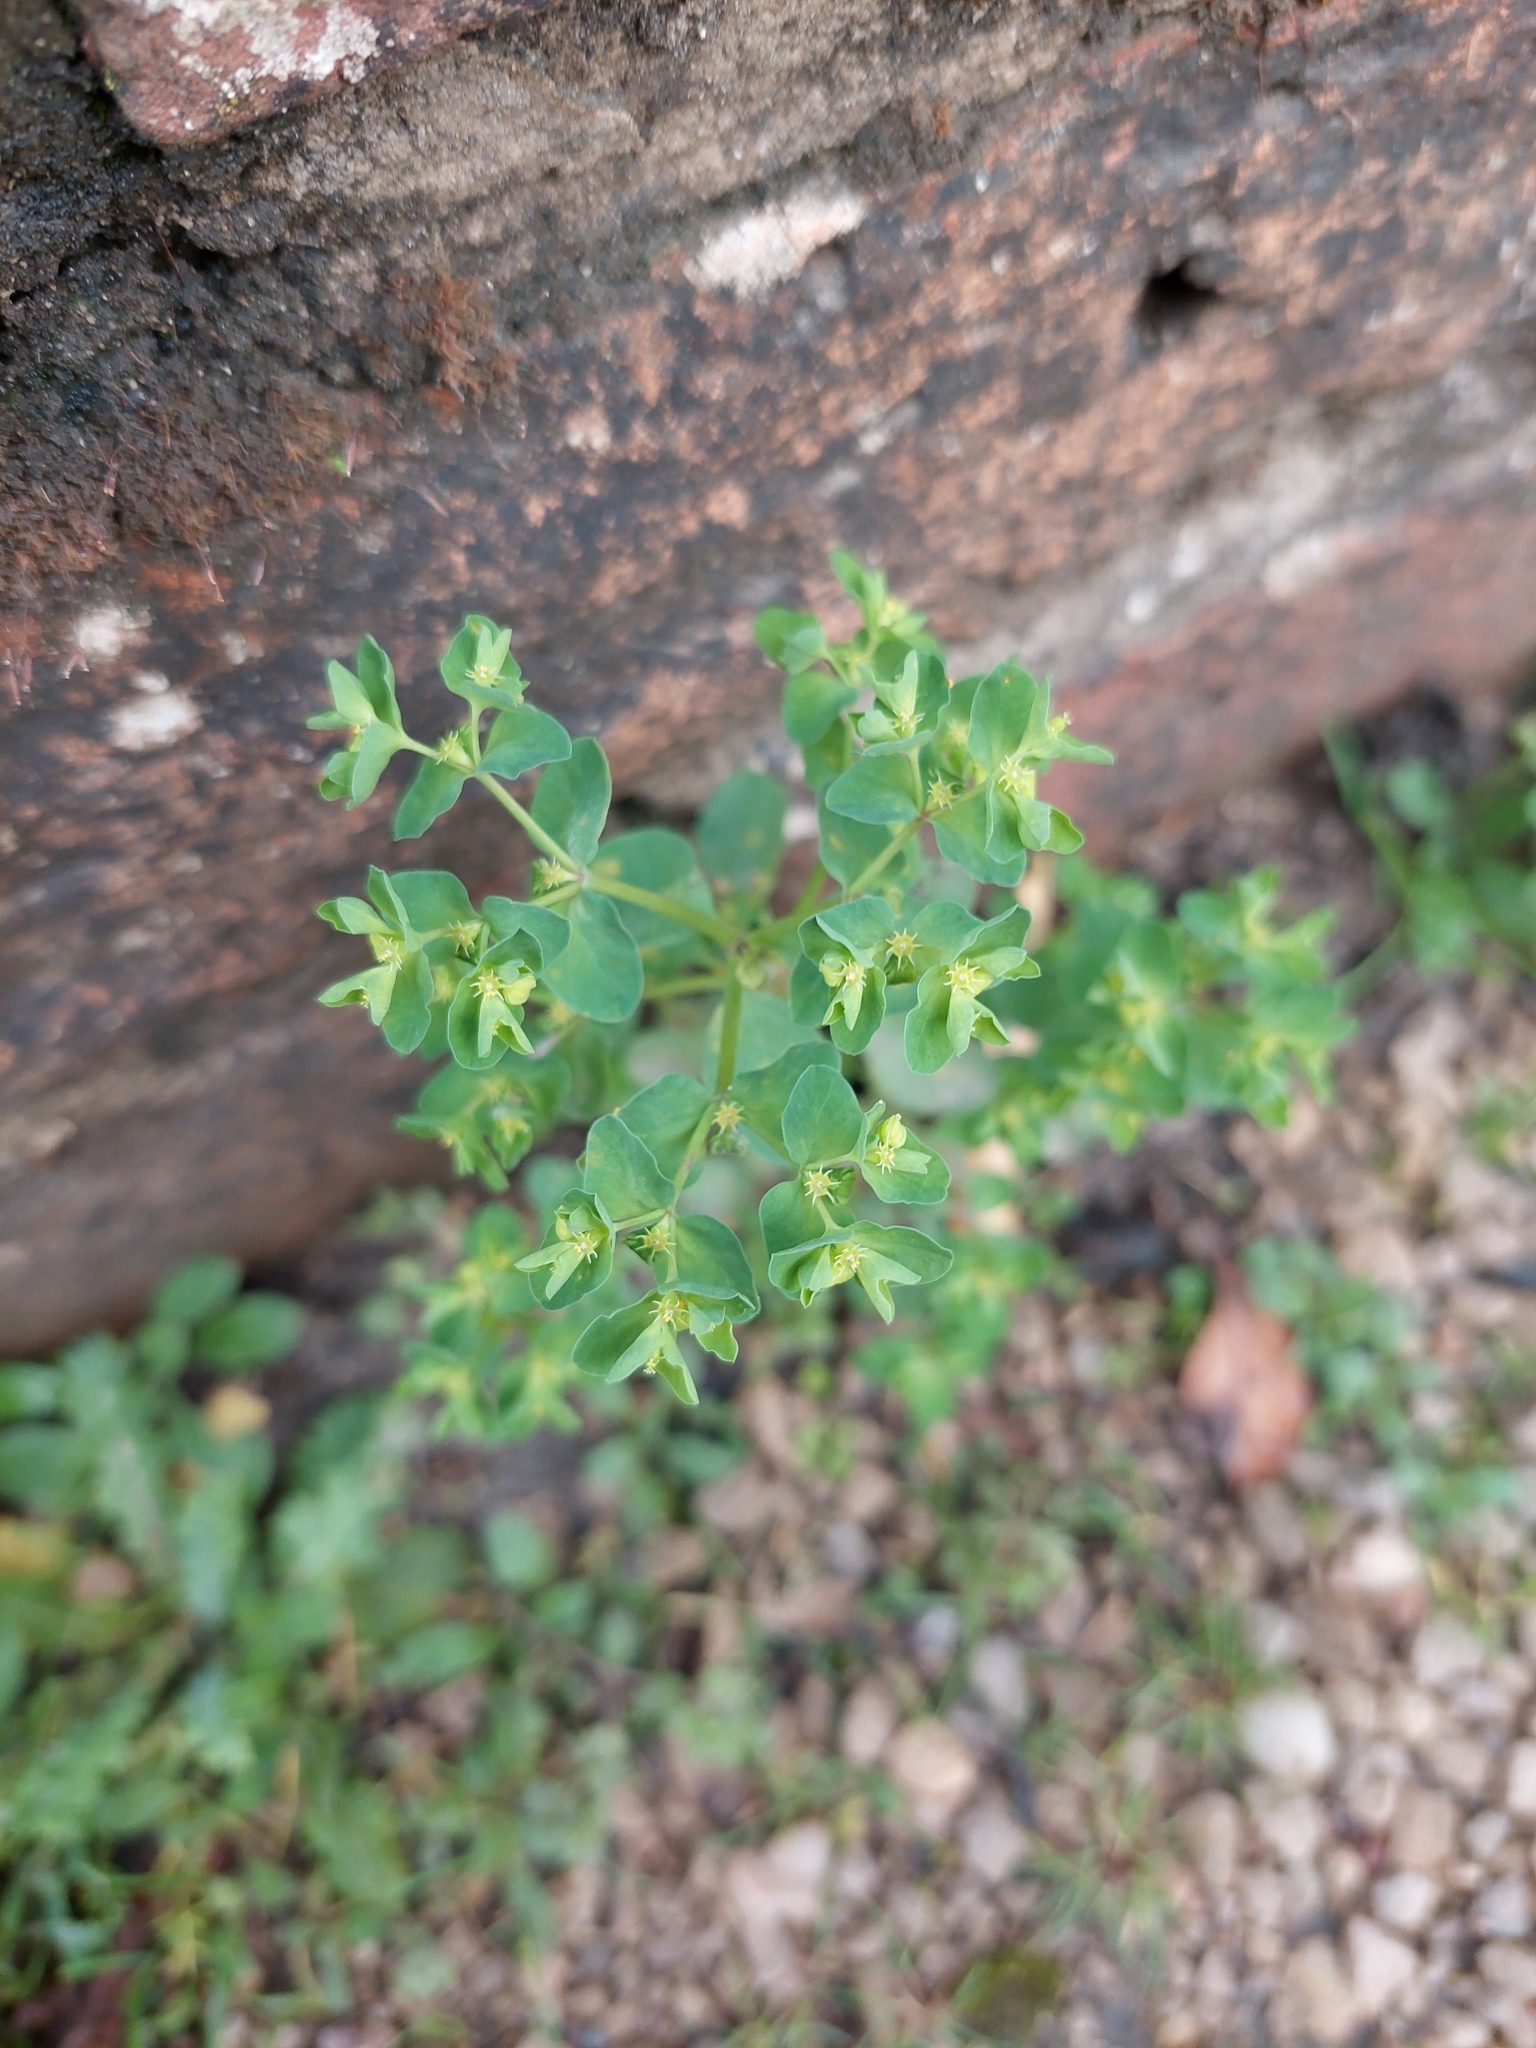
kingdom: Plantae
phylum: Tracheophyta
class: Magnoliopsida
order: Malpighiales
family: Euphorbiaceae
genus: Euphorbia
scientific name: Euphorbia peplus
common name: Petty spurge
